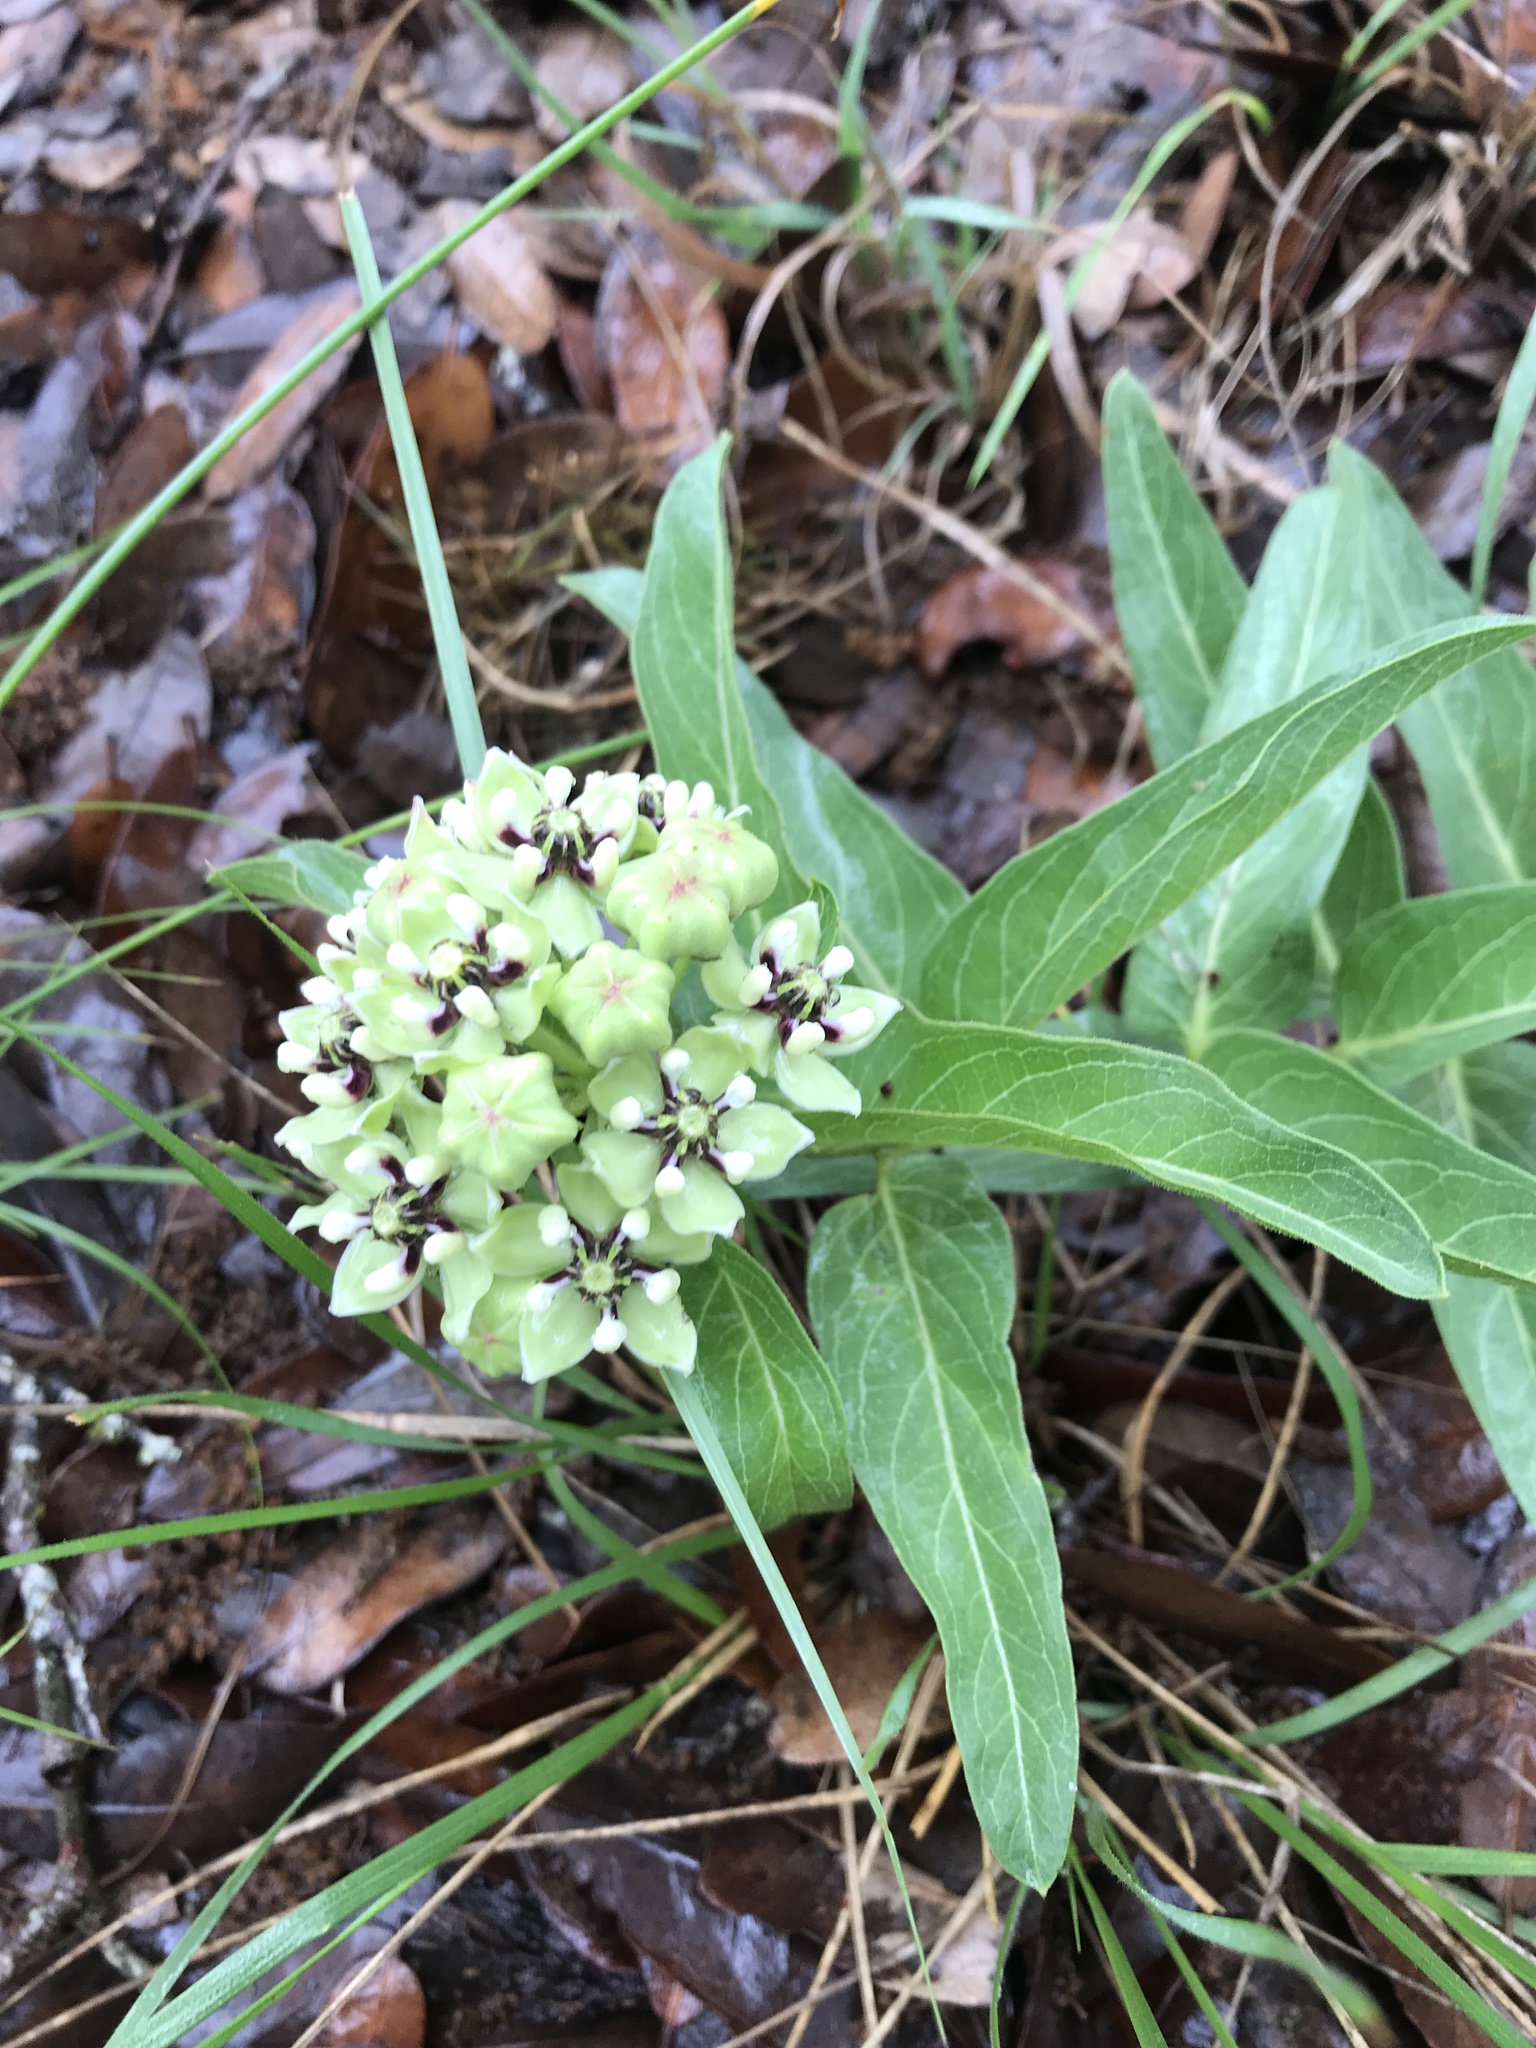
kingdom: Plantae
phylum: Tracheophyta
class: Magnoliopsida
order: Gentianales
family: Apocynaceae
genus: Asclepias
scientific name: Asclepias asperula
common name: Antelope horns
